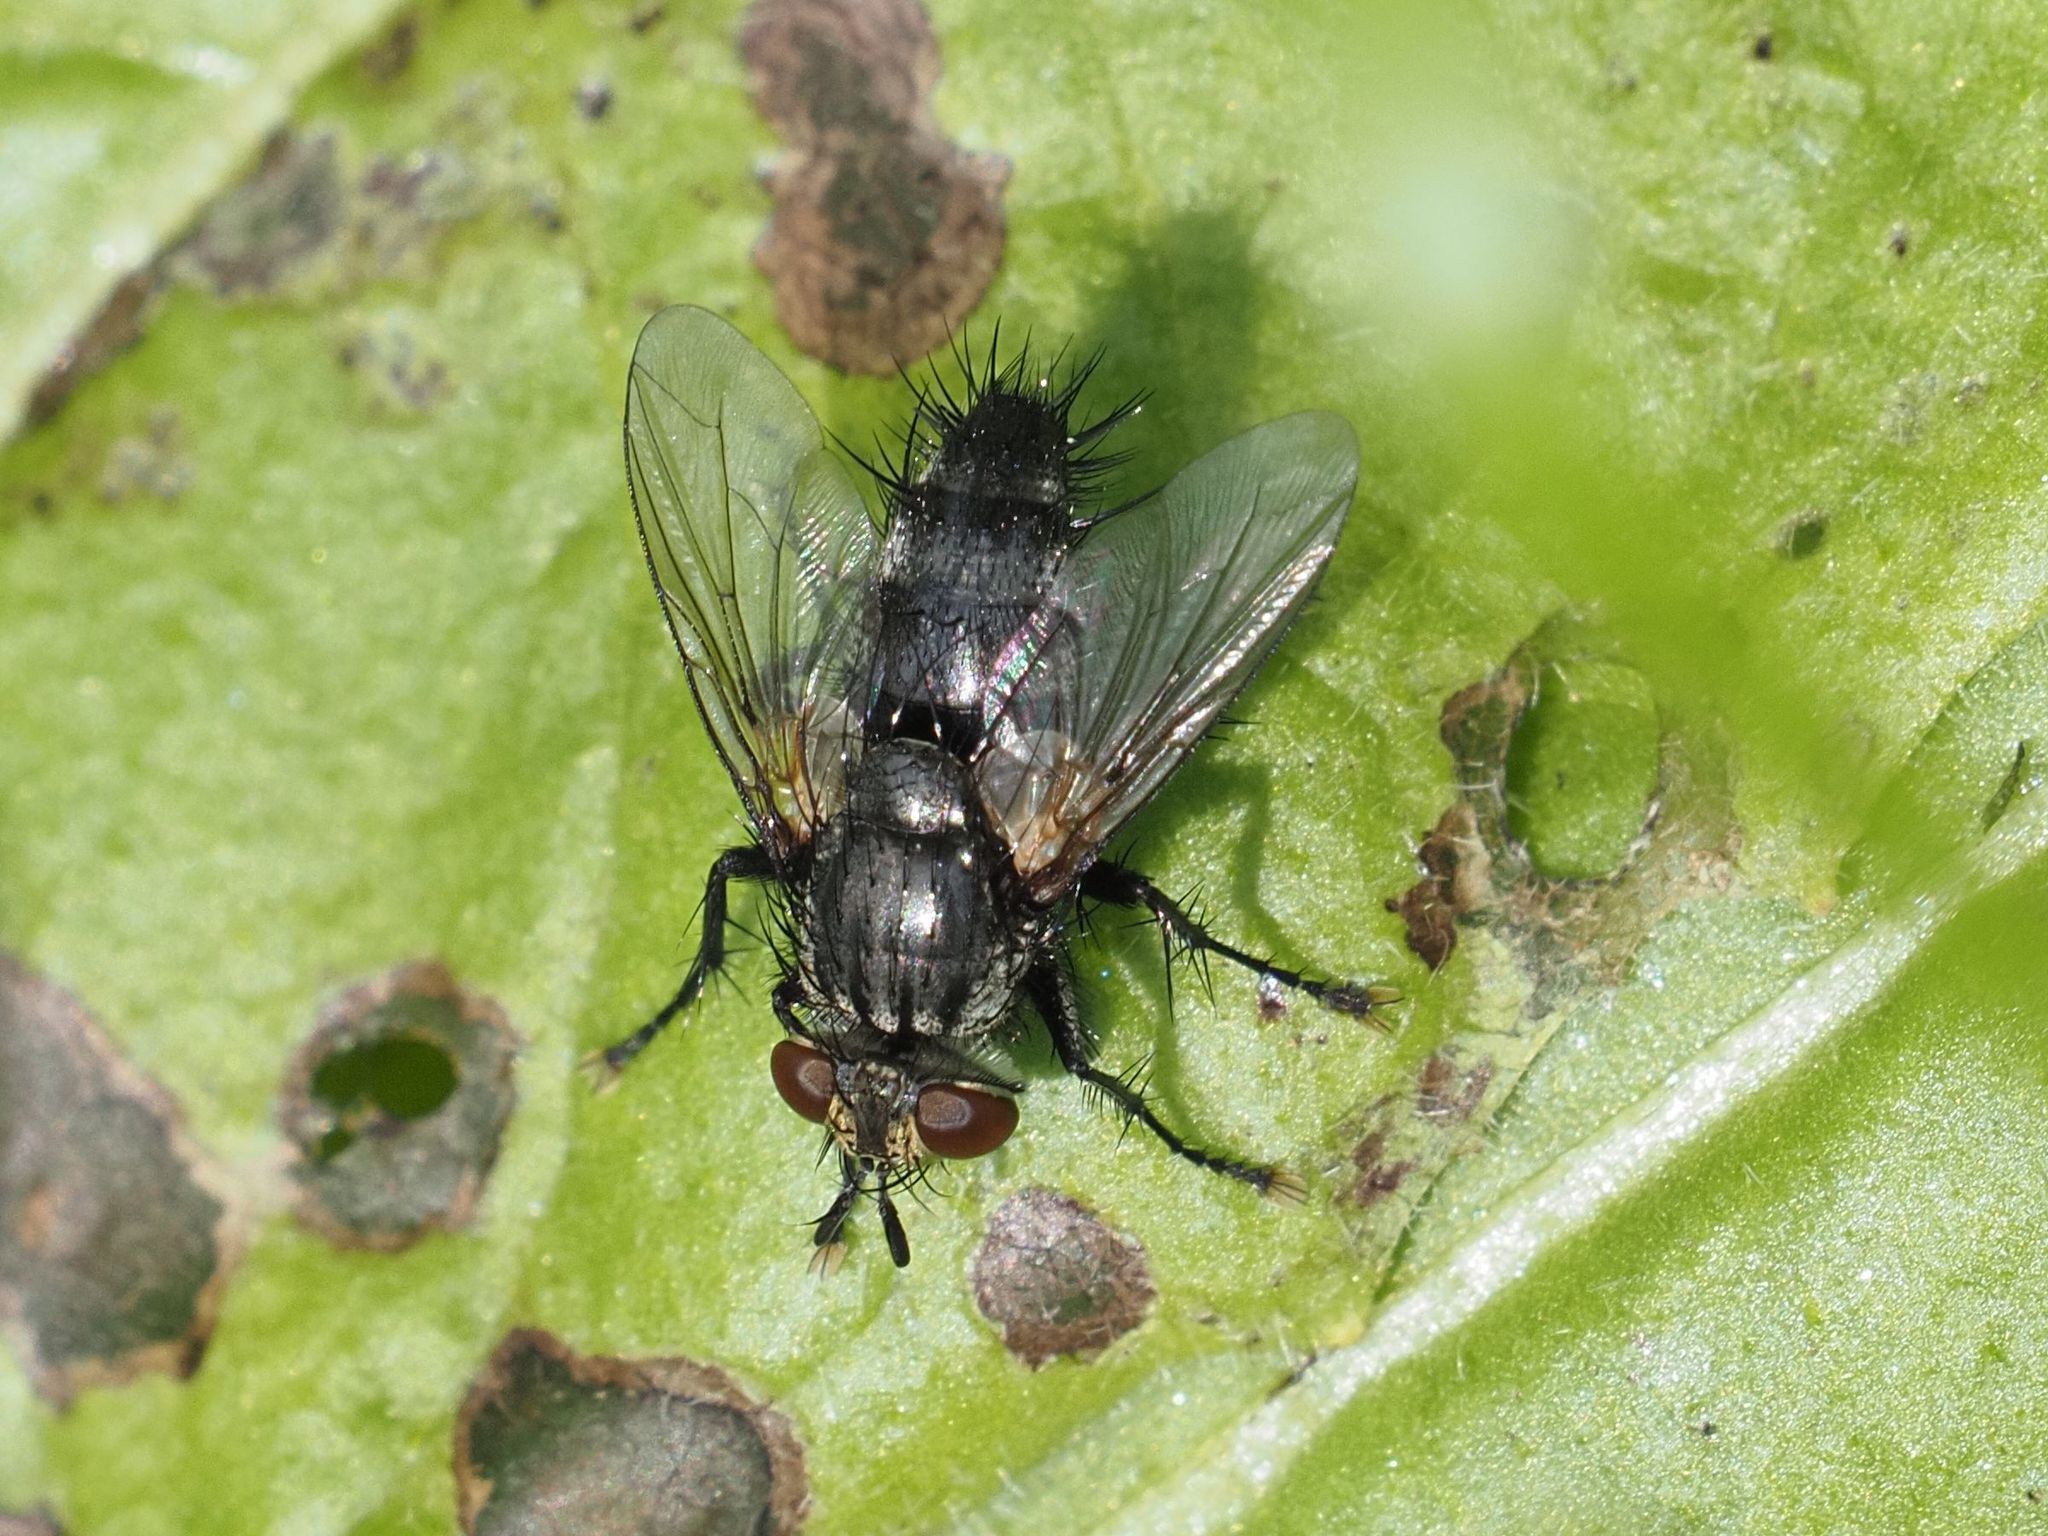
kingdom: Animalia
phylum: Arthropoda
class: Insecta
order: Diptera
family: Tachinidae
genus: Voria
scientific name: Voria ruralis
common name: Parasitic fly
